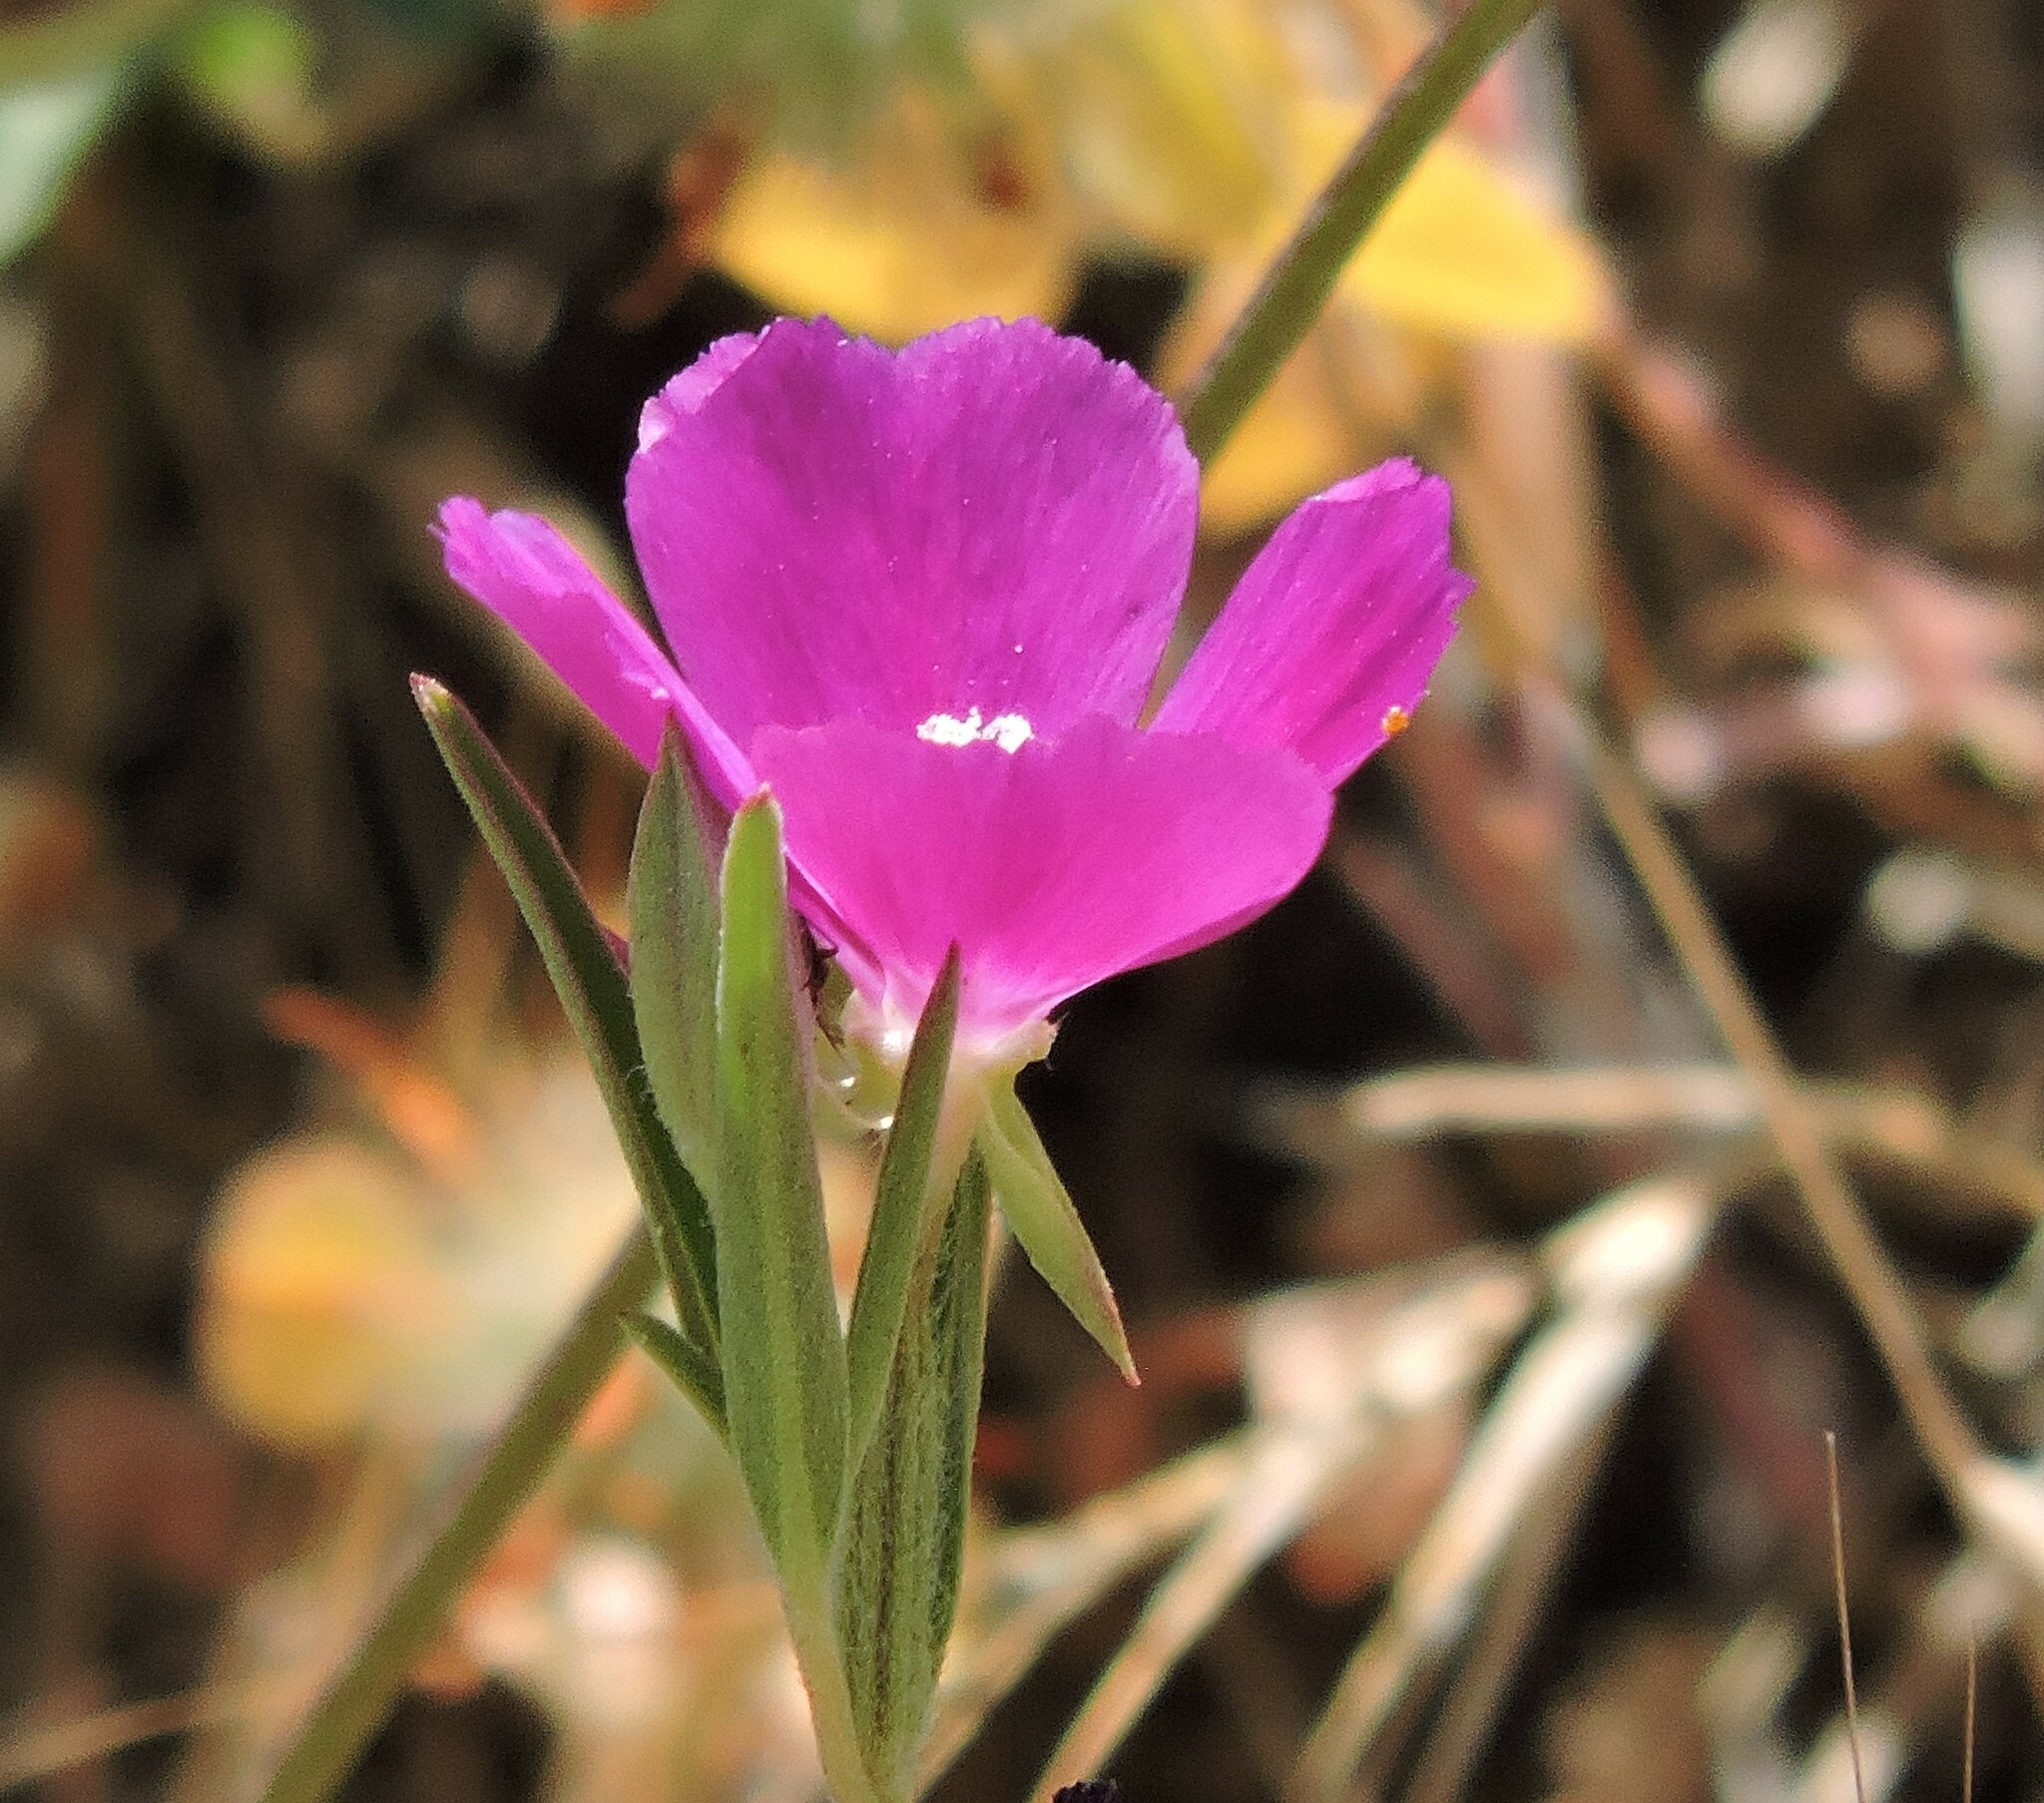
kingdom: Plantae
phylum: Tracheophyta
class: Magnoliopsida
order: Myrtales
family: Onagraceae
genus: Clarkia
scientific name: Clarkia purpurea
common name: Purple clarkia
